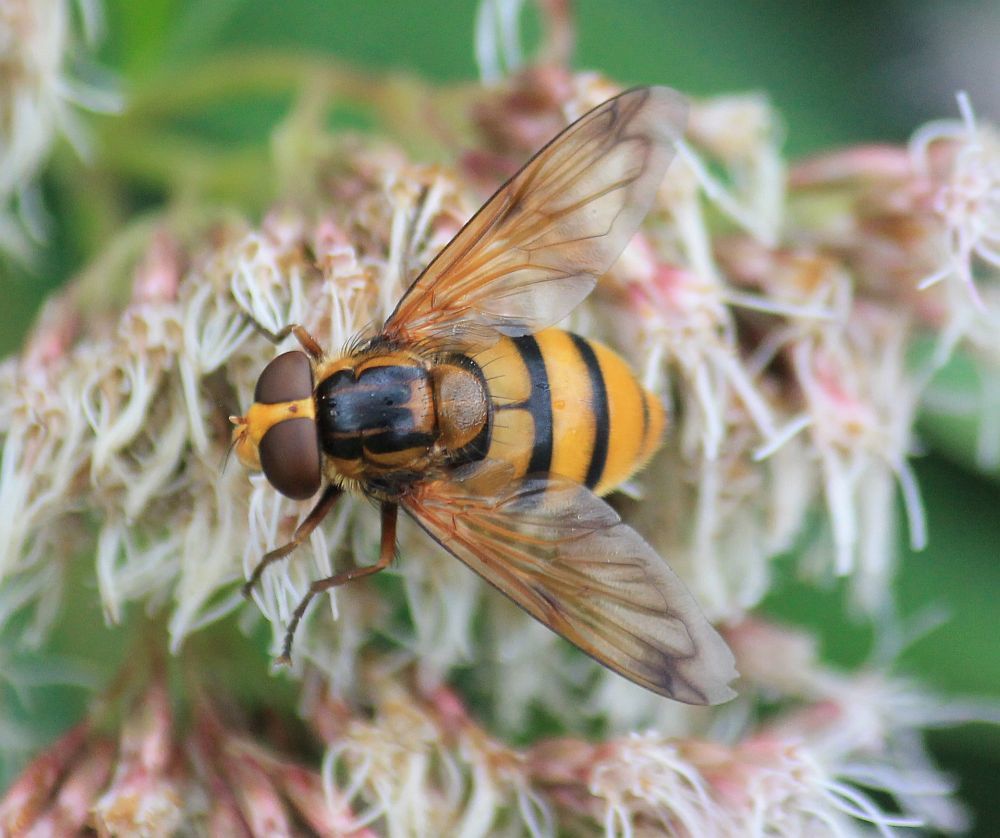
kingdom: Animalia
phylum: Arthropoda
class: Insecta
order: Diptera
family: Syrphidae
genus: Volucella
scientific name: Volucella inanis
